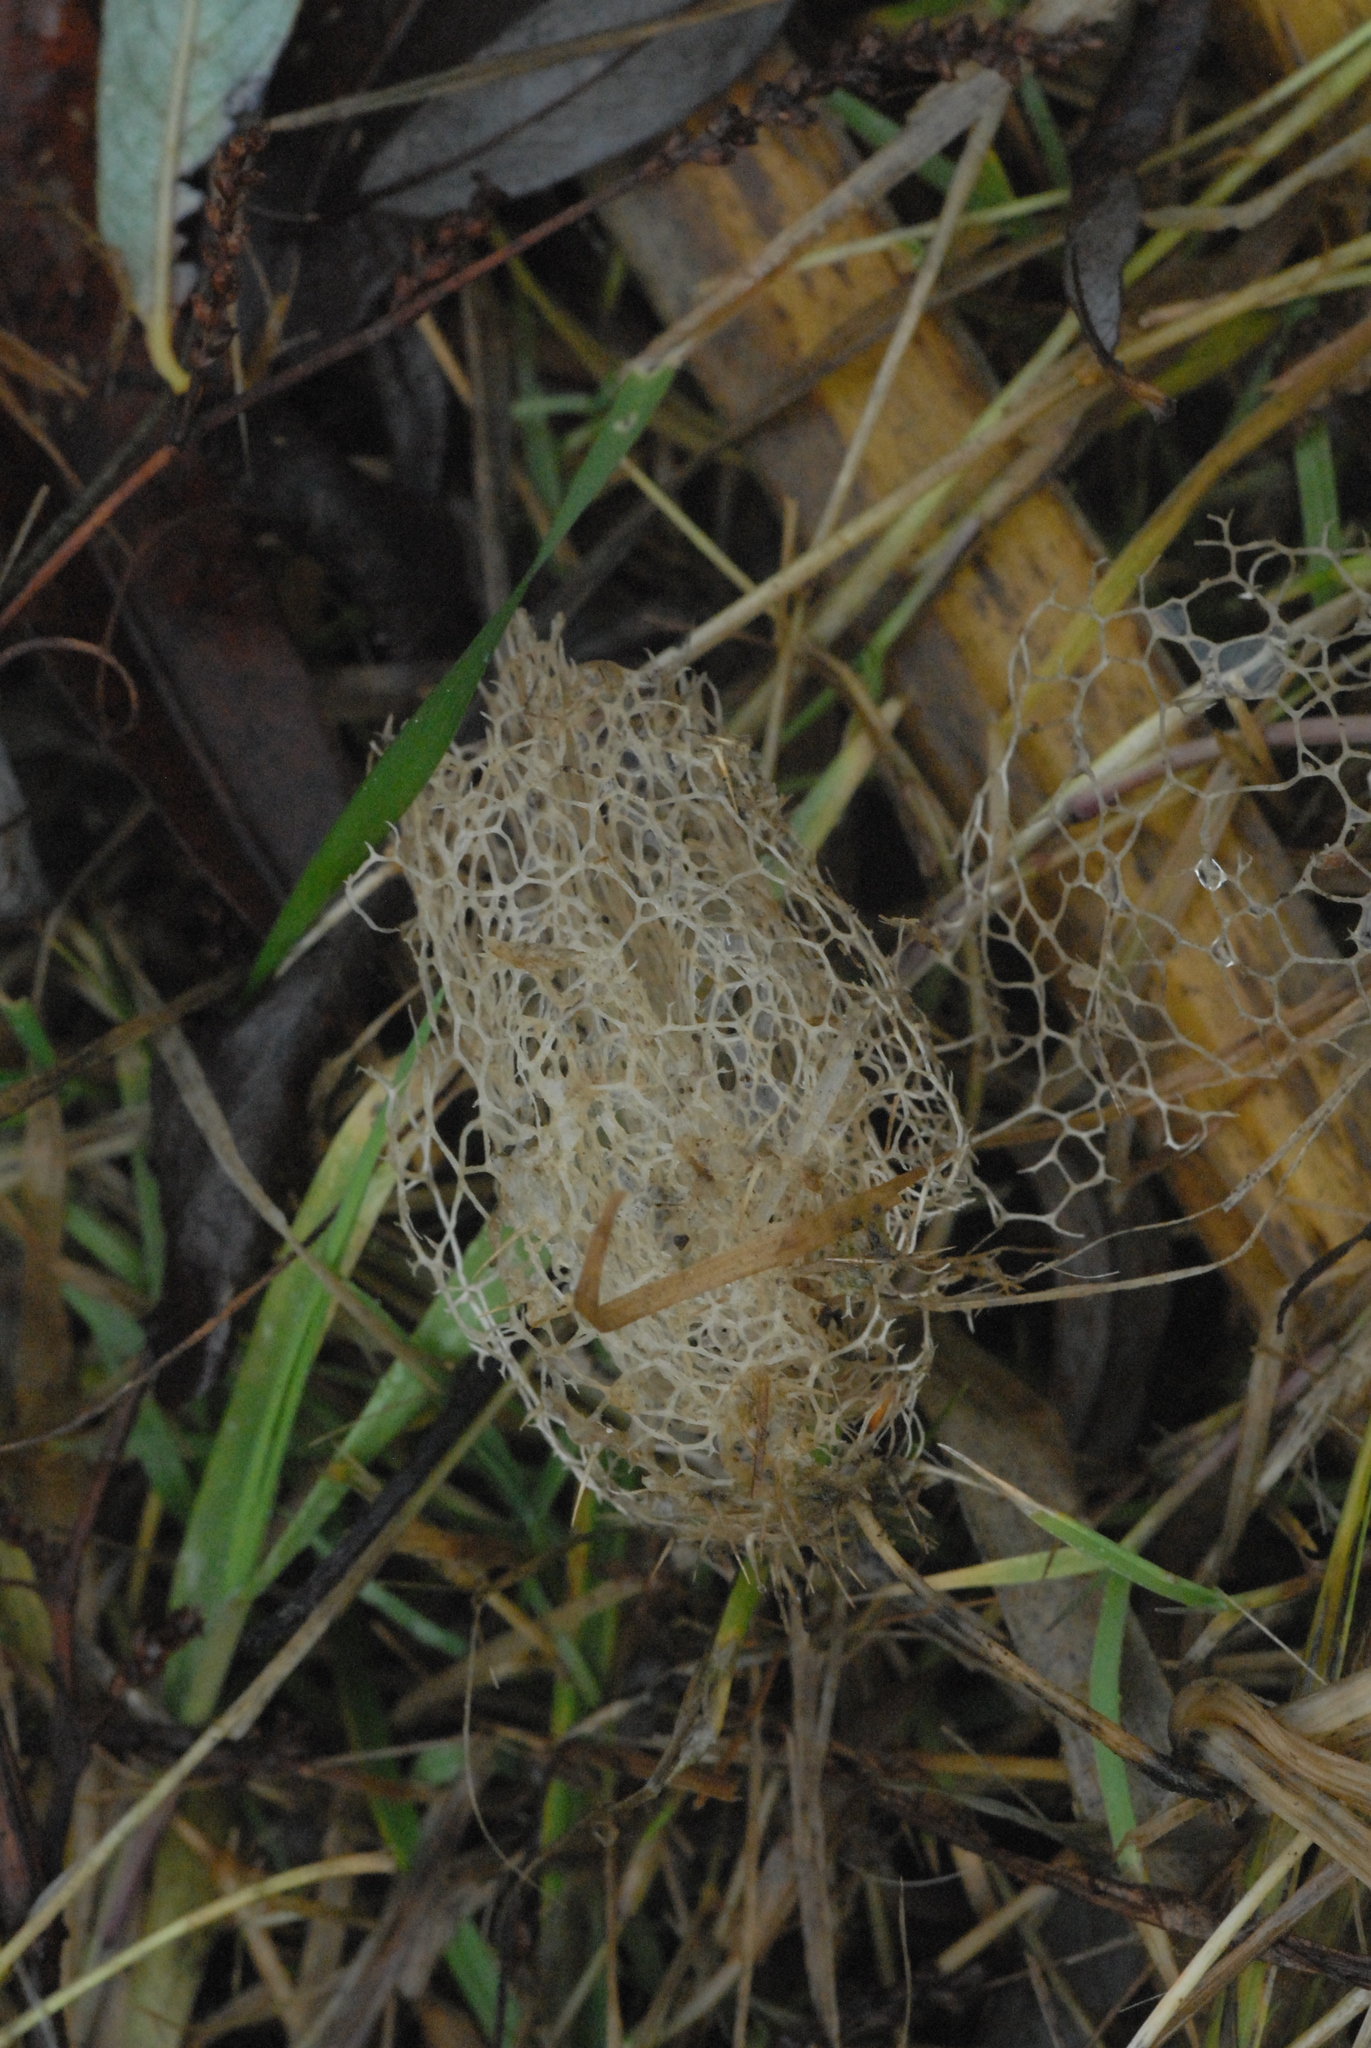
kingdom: Plantae
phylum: Tracheophyta
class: Magnoliopsida
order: Cucurbitales
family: Cucurbitaceae
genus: Echinocystis
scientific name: Echinocystis lobata
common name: Wild cucumber
